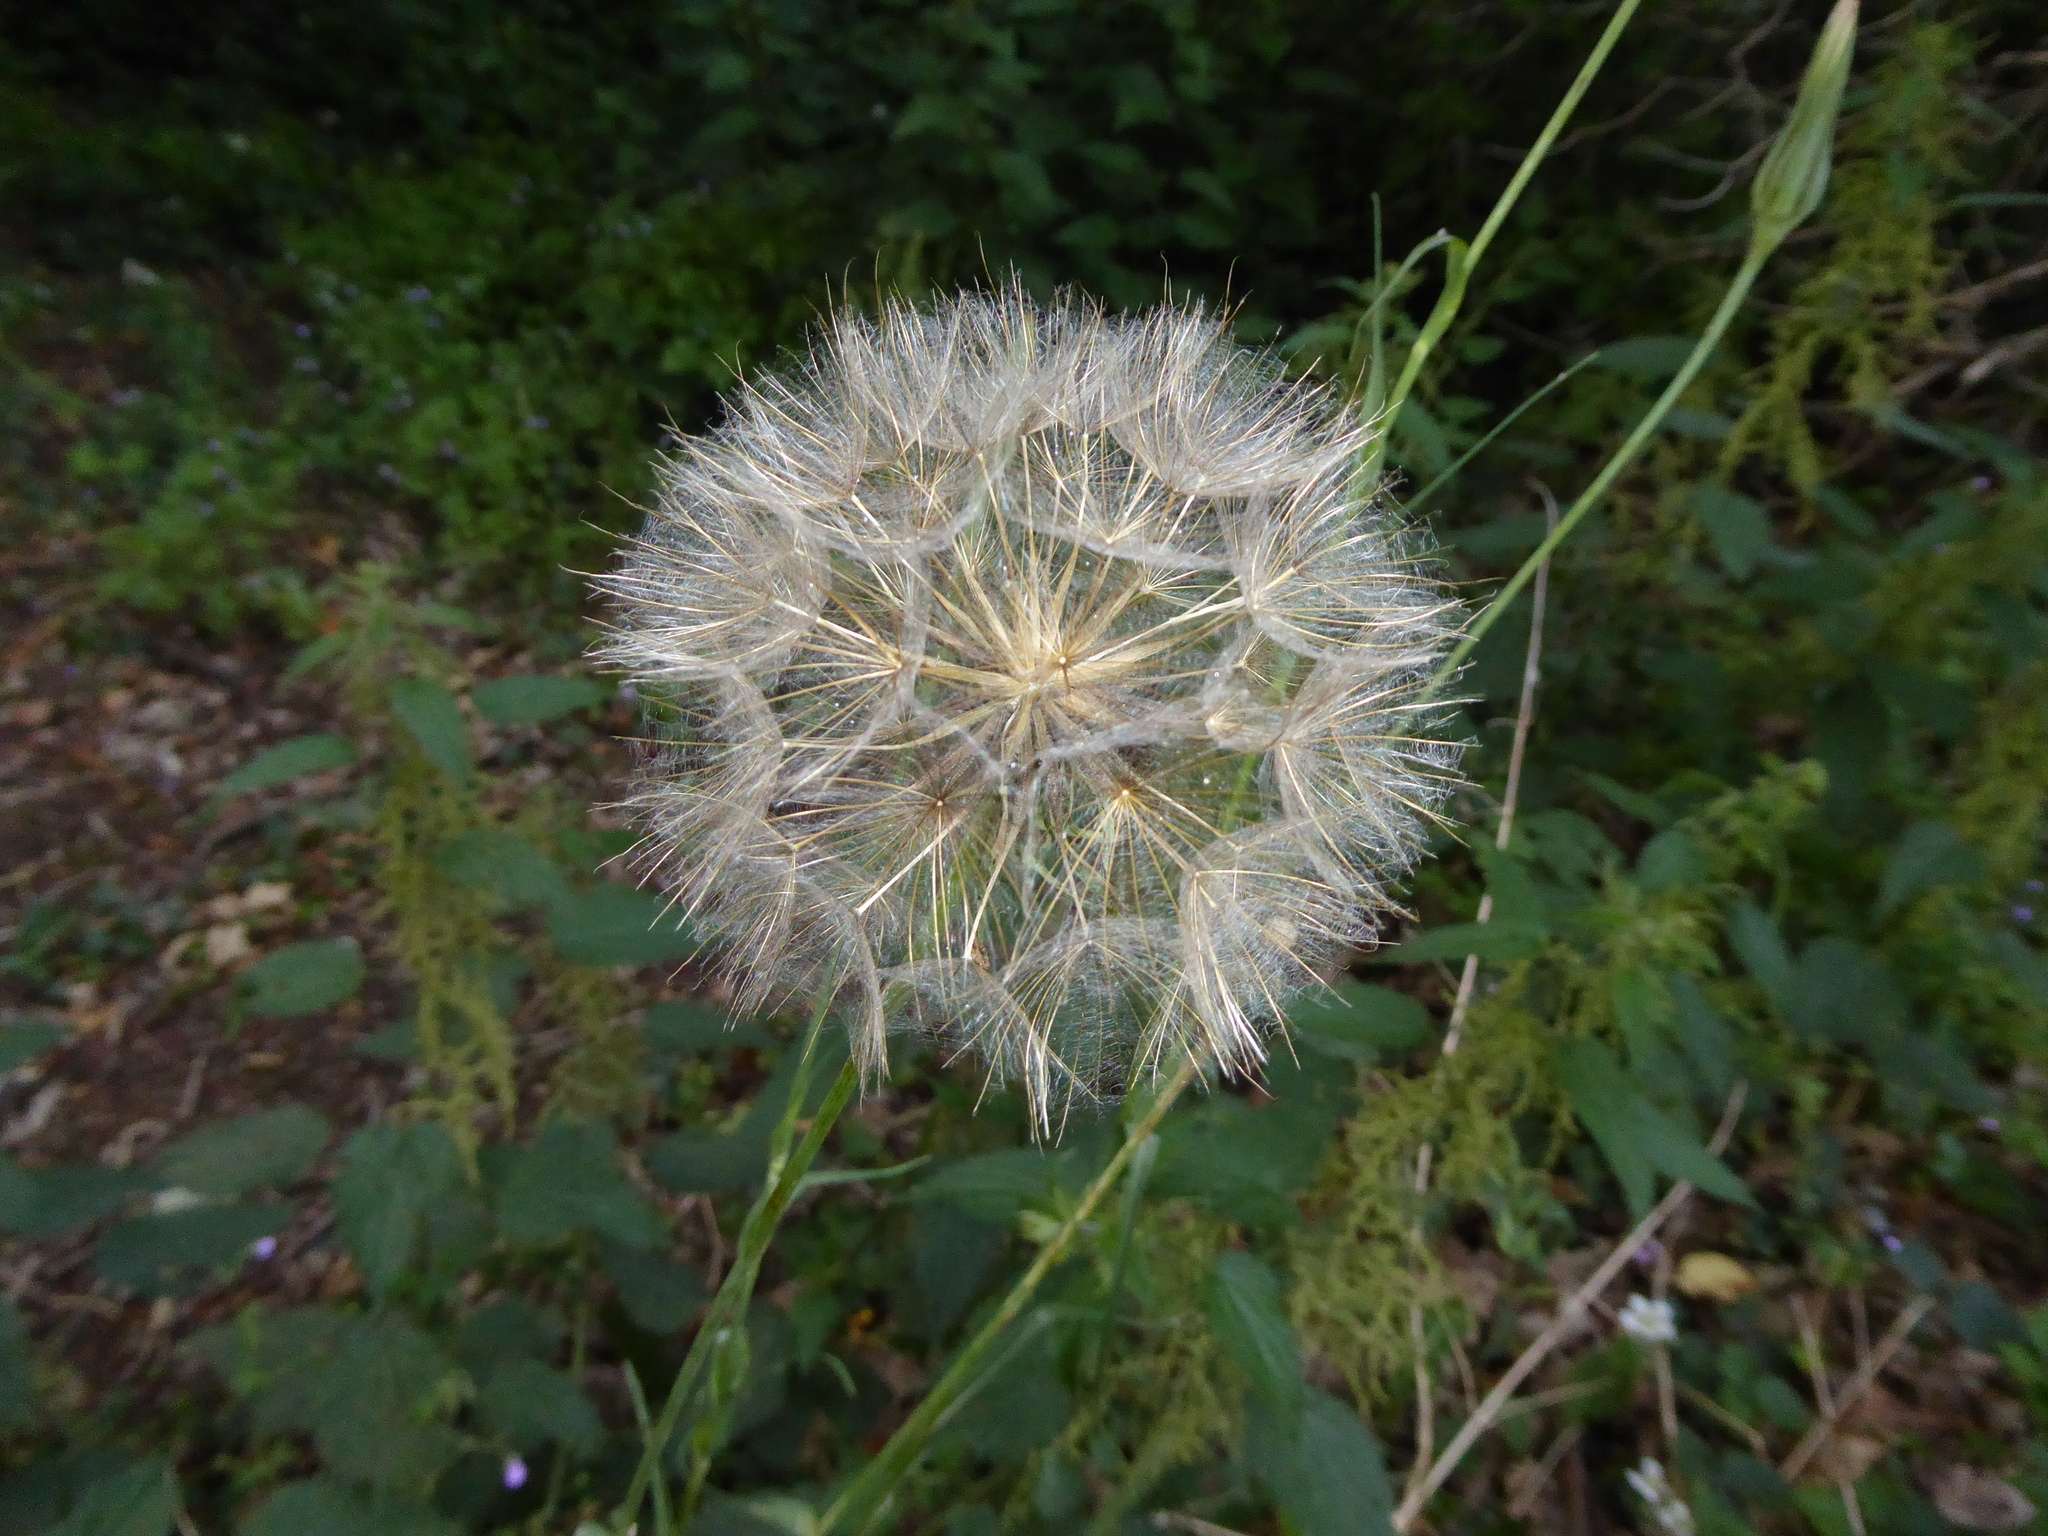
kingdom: Plantae
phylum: Tracheophyta
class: Magnoliopsida
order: Asterales
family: Asteraceae
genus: Tragopogon
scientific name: Tragopogon pratensis
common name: Goat's-beard
